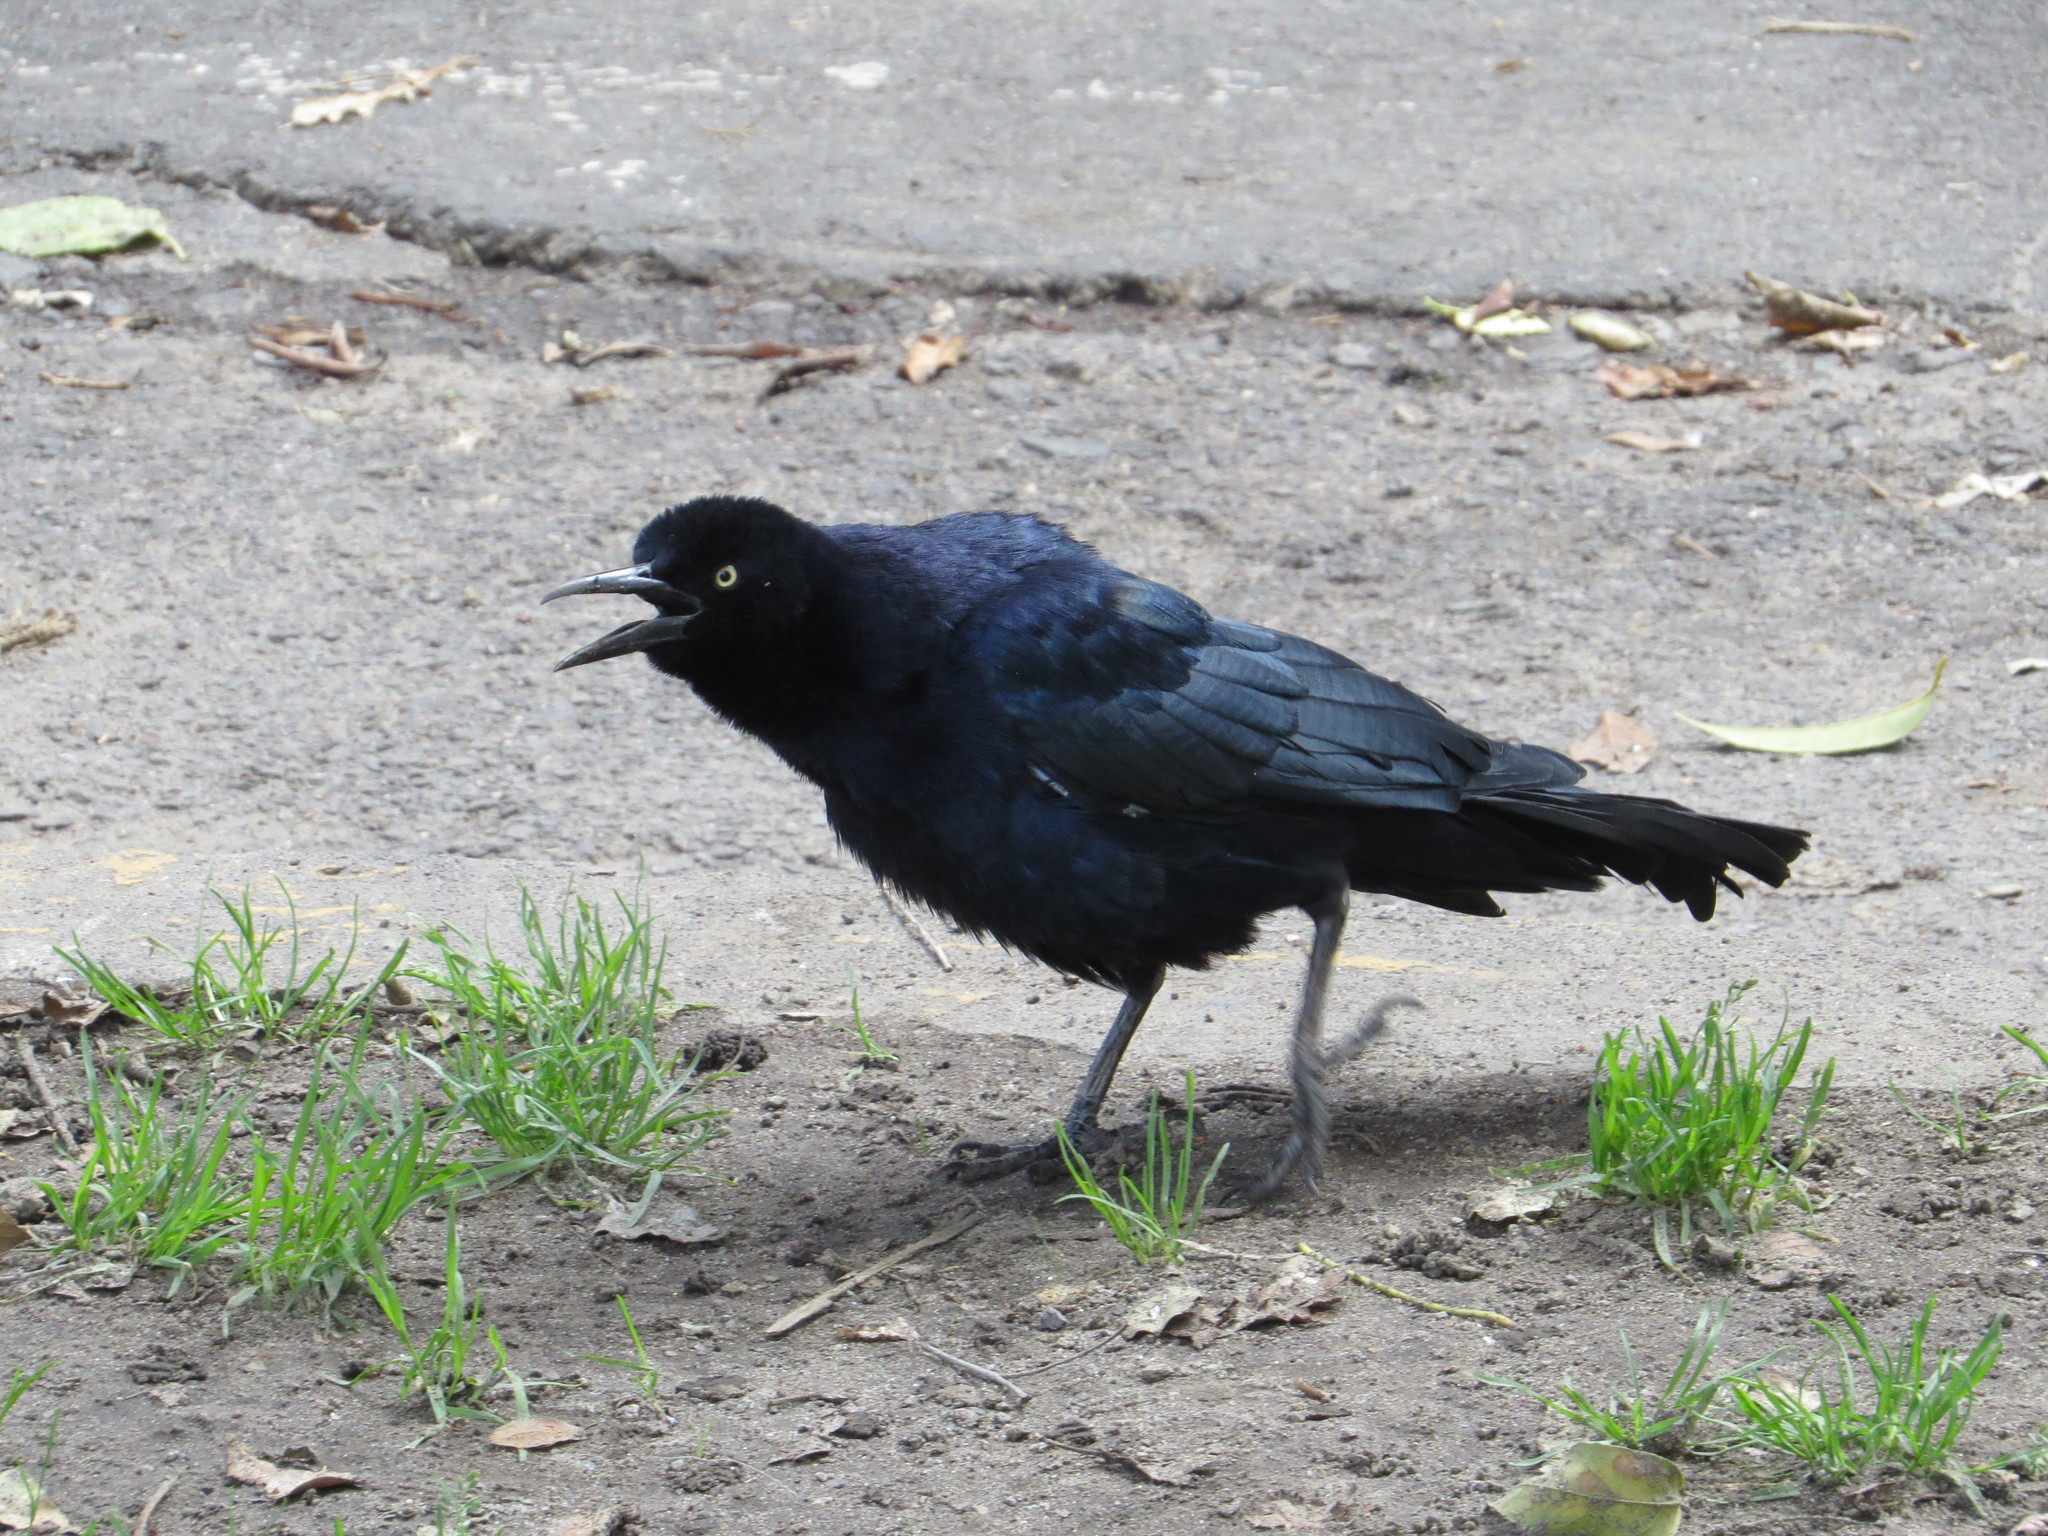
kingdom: Animalia
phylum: Chordata
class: Aves
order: Passeriformes
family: Icteridae
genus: Quiscalus
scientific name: Quiscalus mexicanus
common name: Great-tailed grackle
